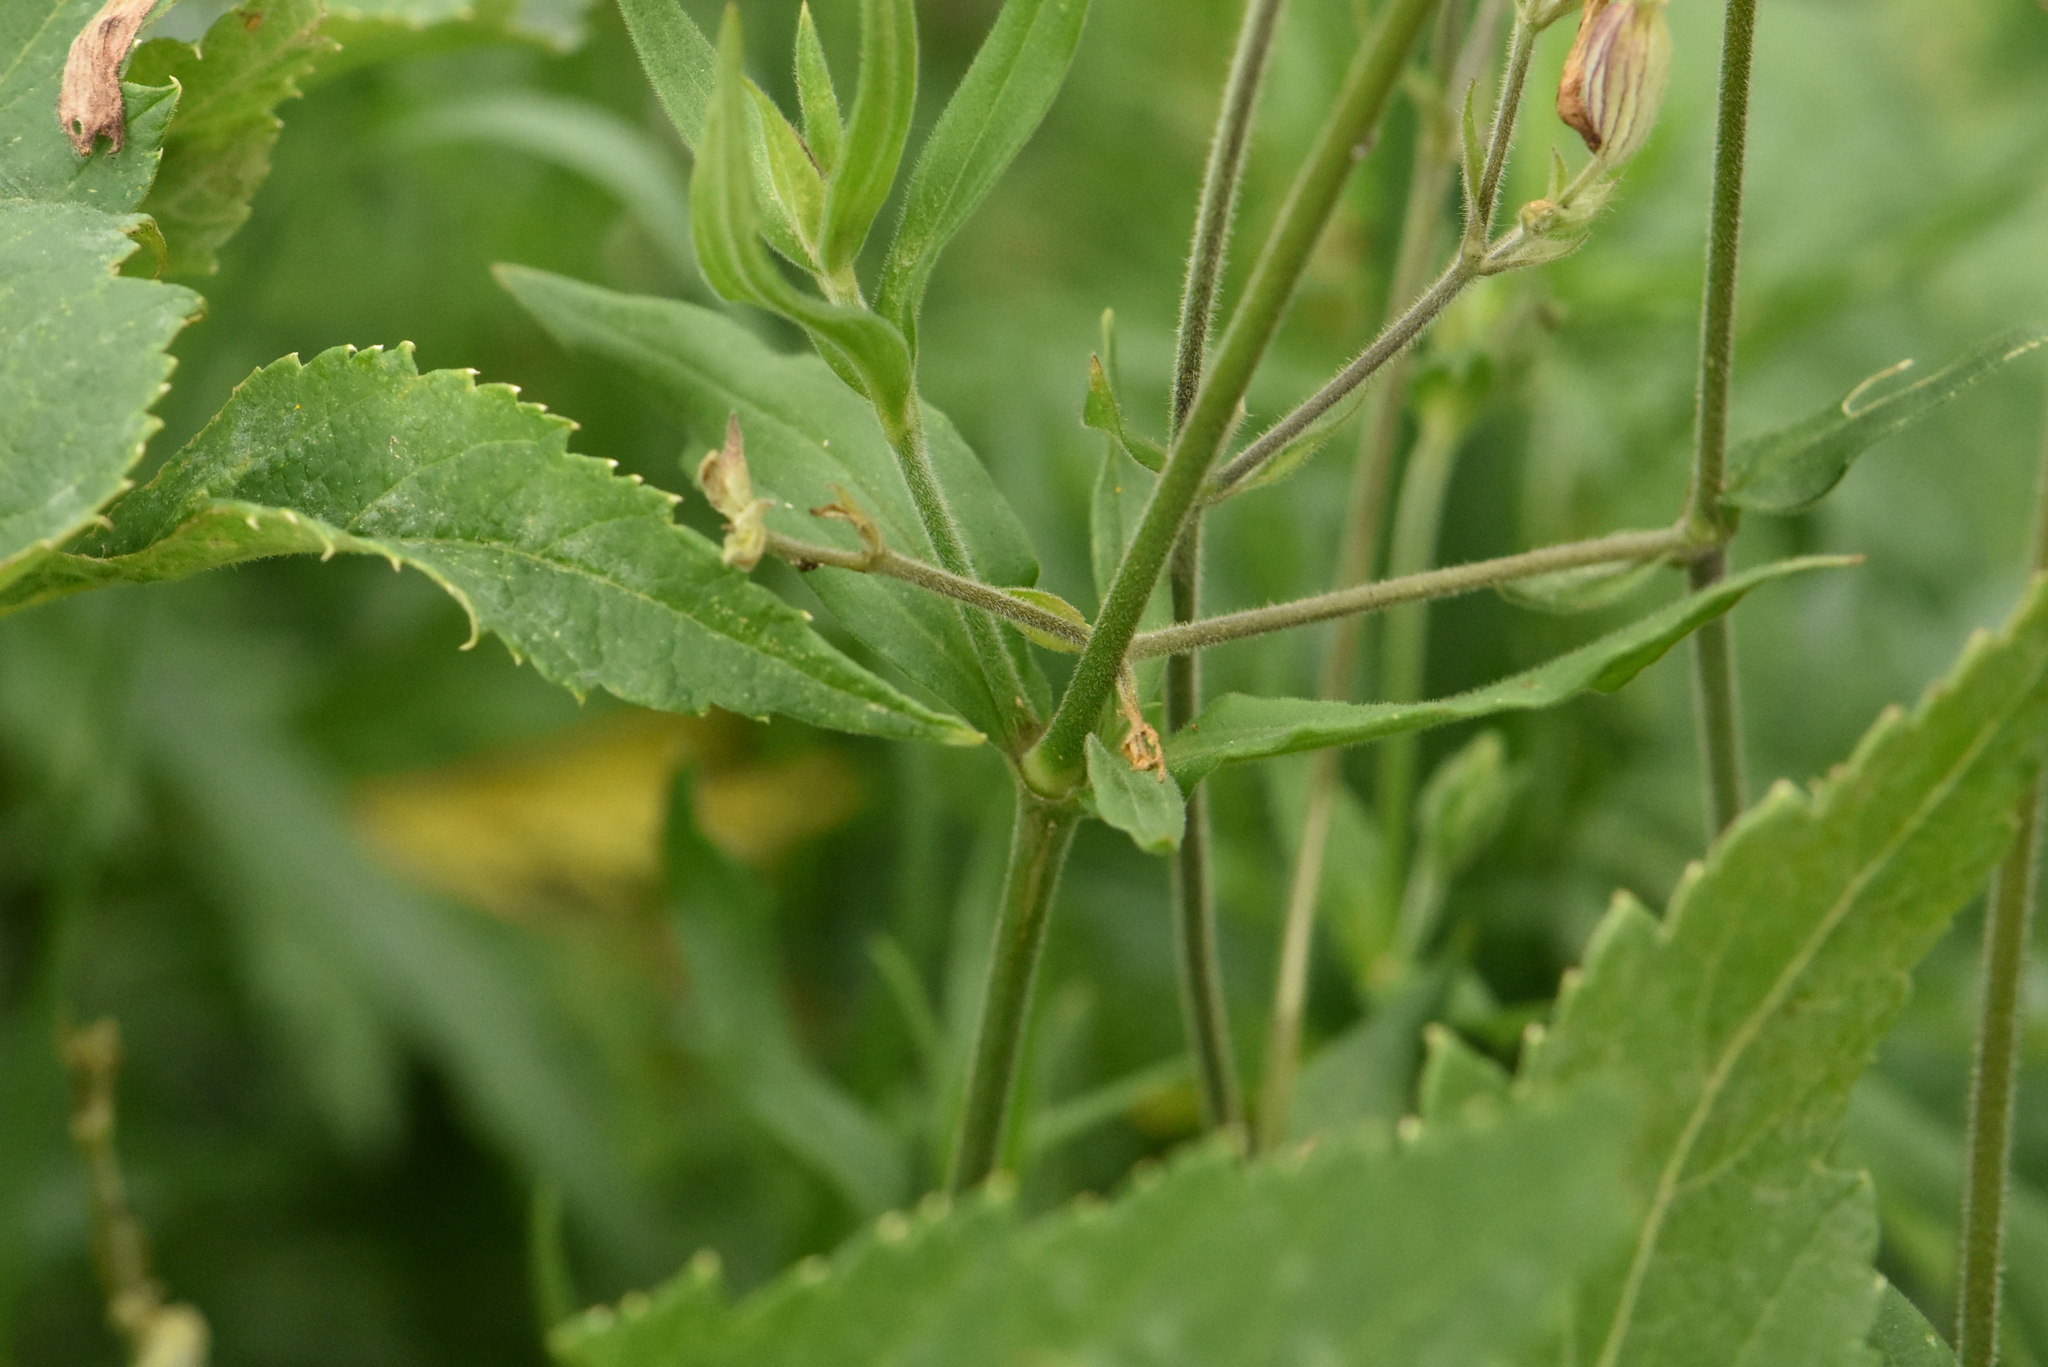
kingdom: Plantae
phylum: Tracheophyta
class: Magnoliopsida
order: Caryophyllales
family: Caryophyllaceae
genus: Silene
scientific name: Silene latifolia
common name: White campion
